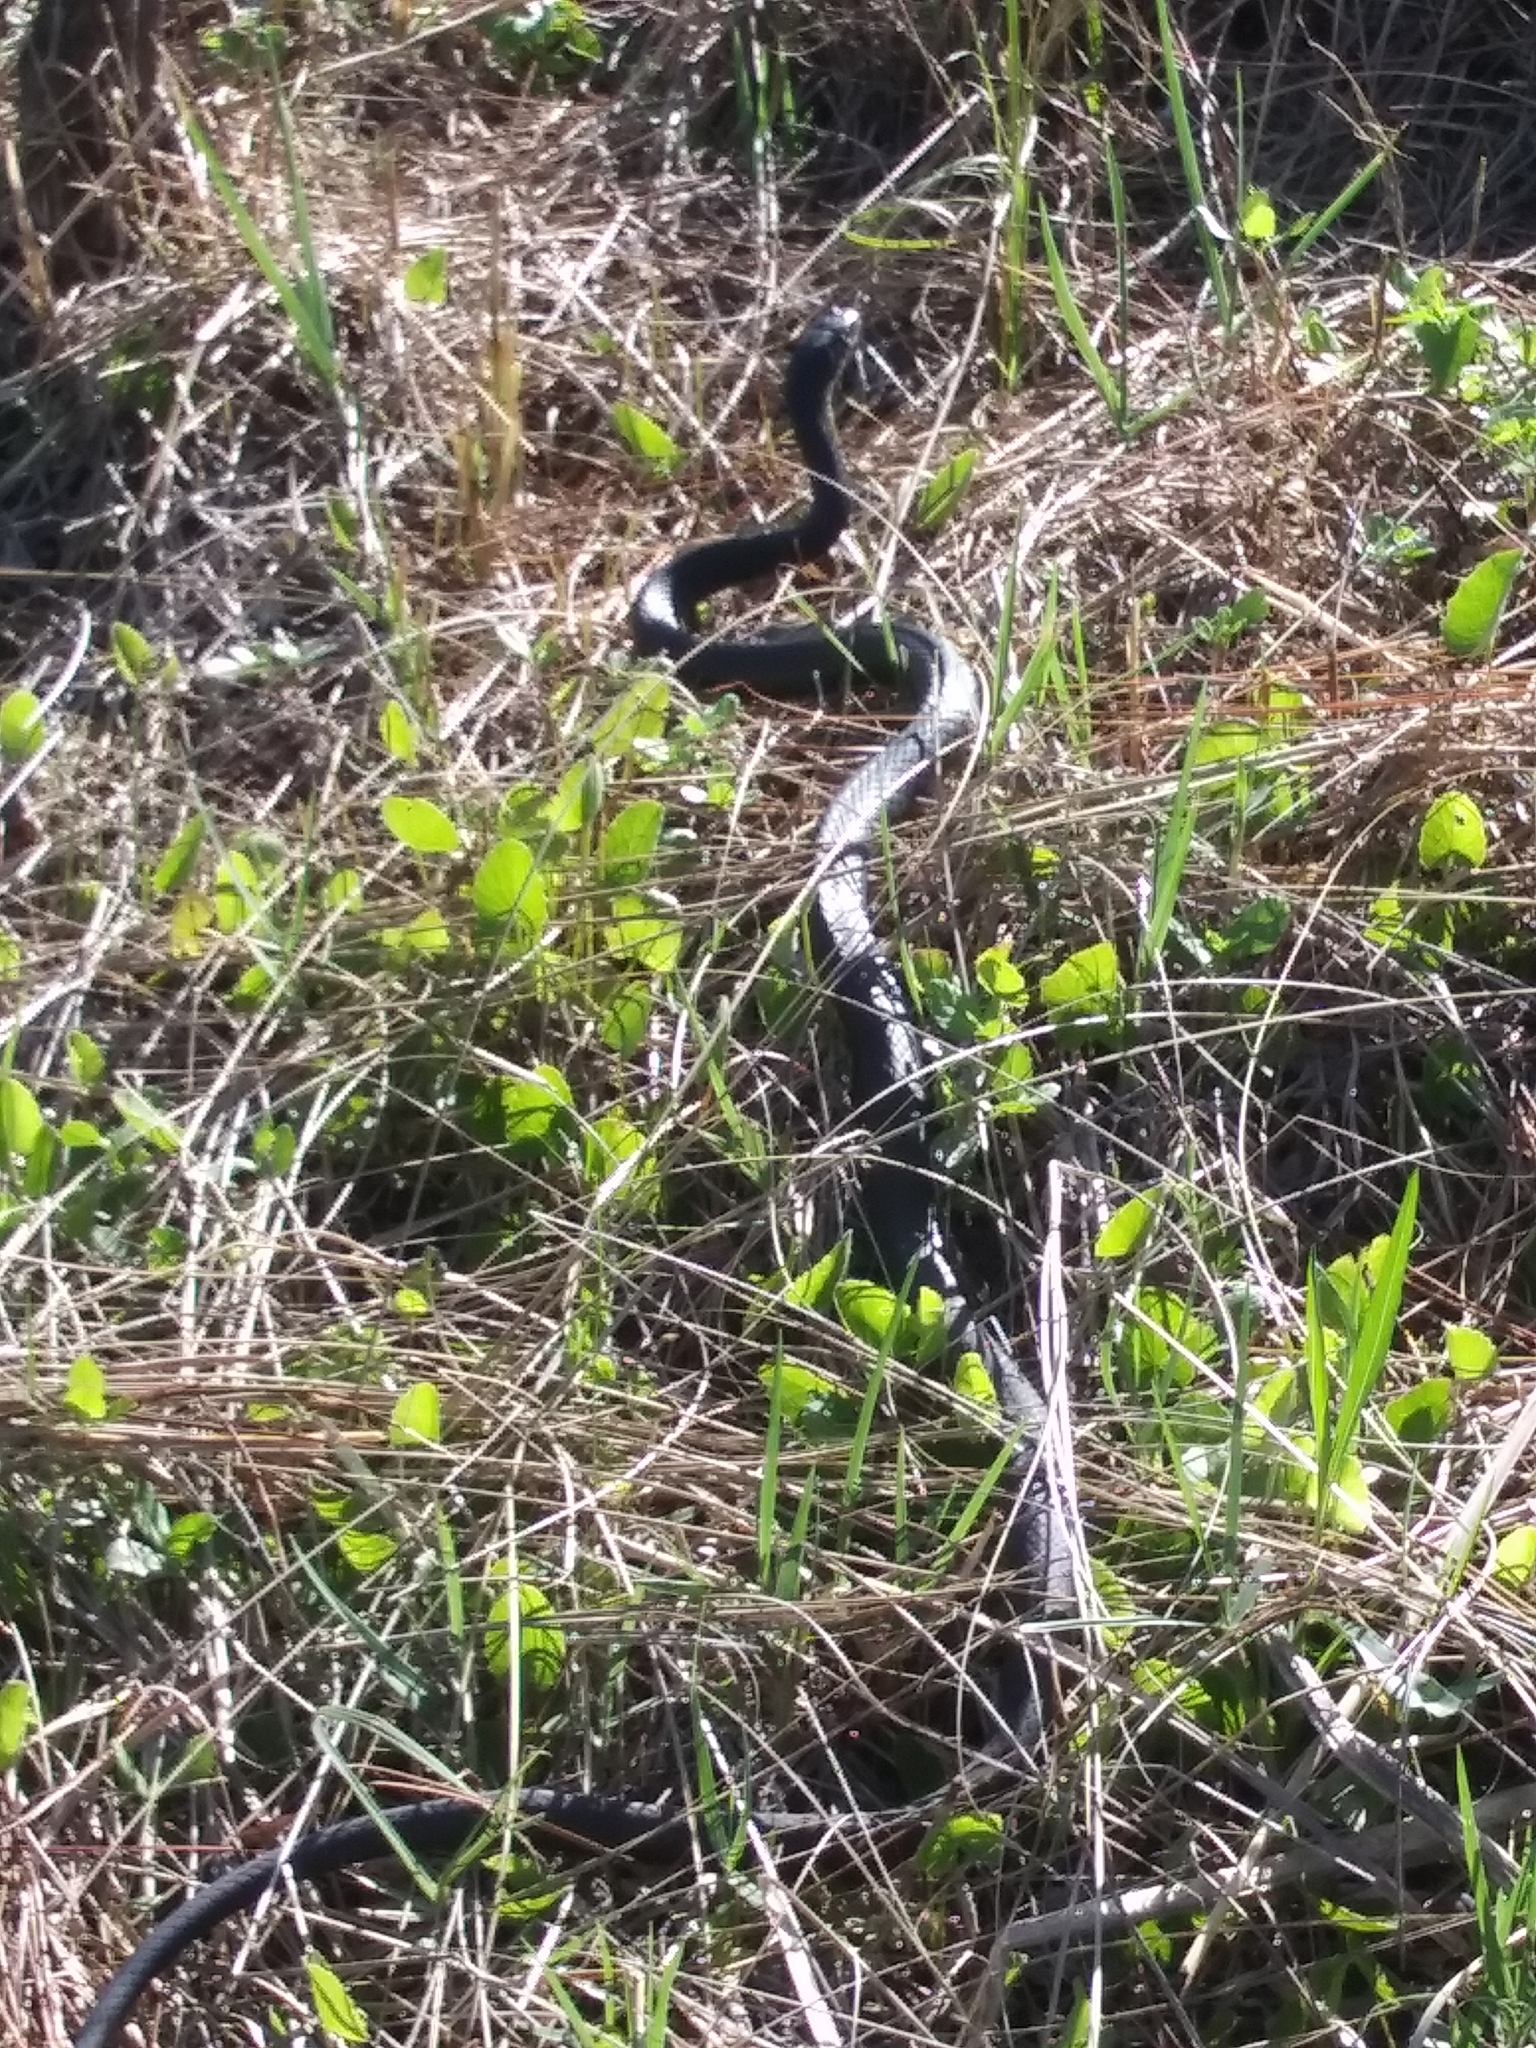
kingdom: Animalia
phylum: Chordata
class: Squamata
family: Colubridae
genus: Coluber
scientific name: Coluber constrictor
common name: Eastern racer
